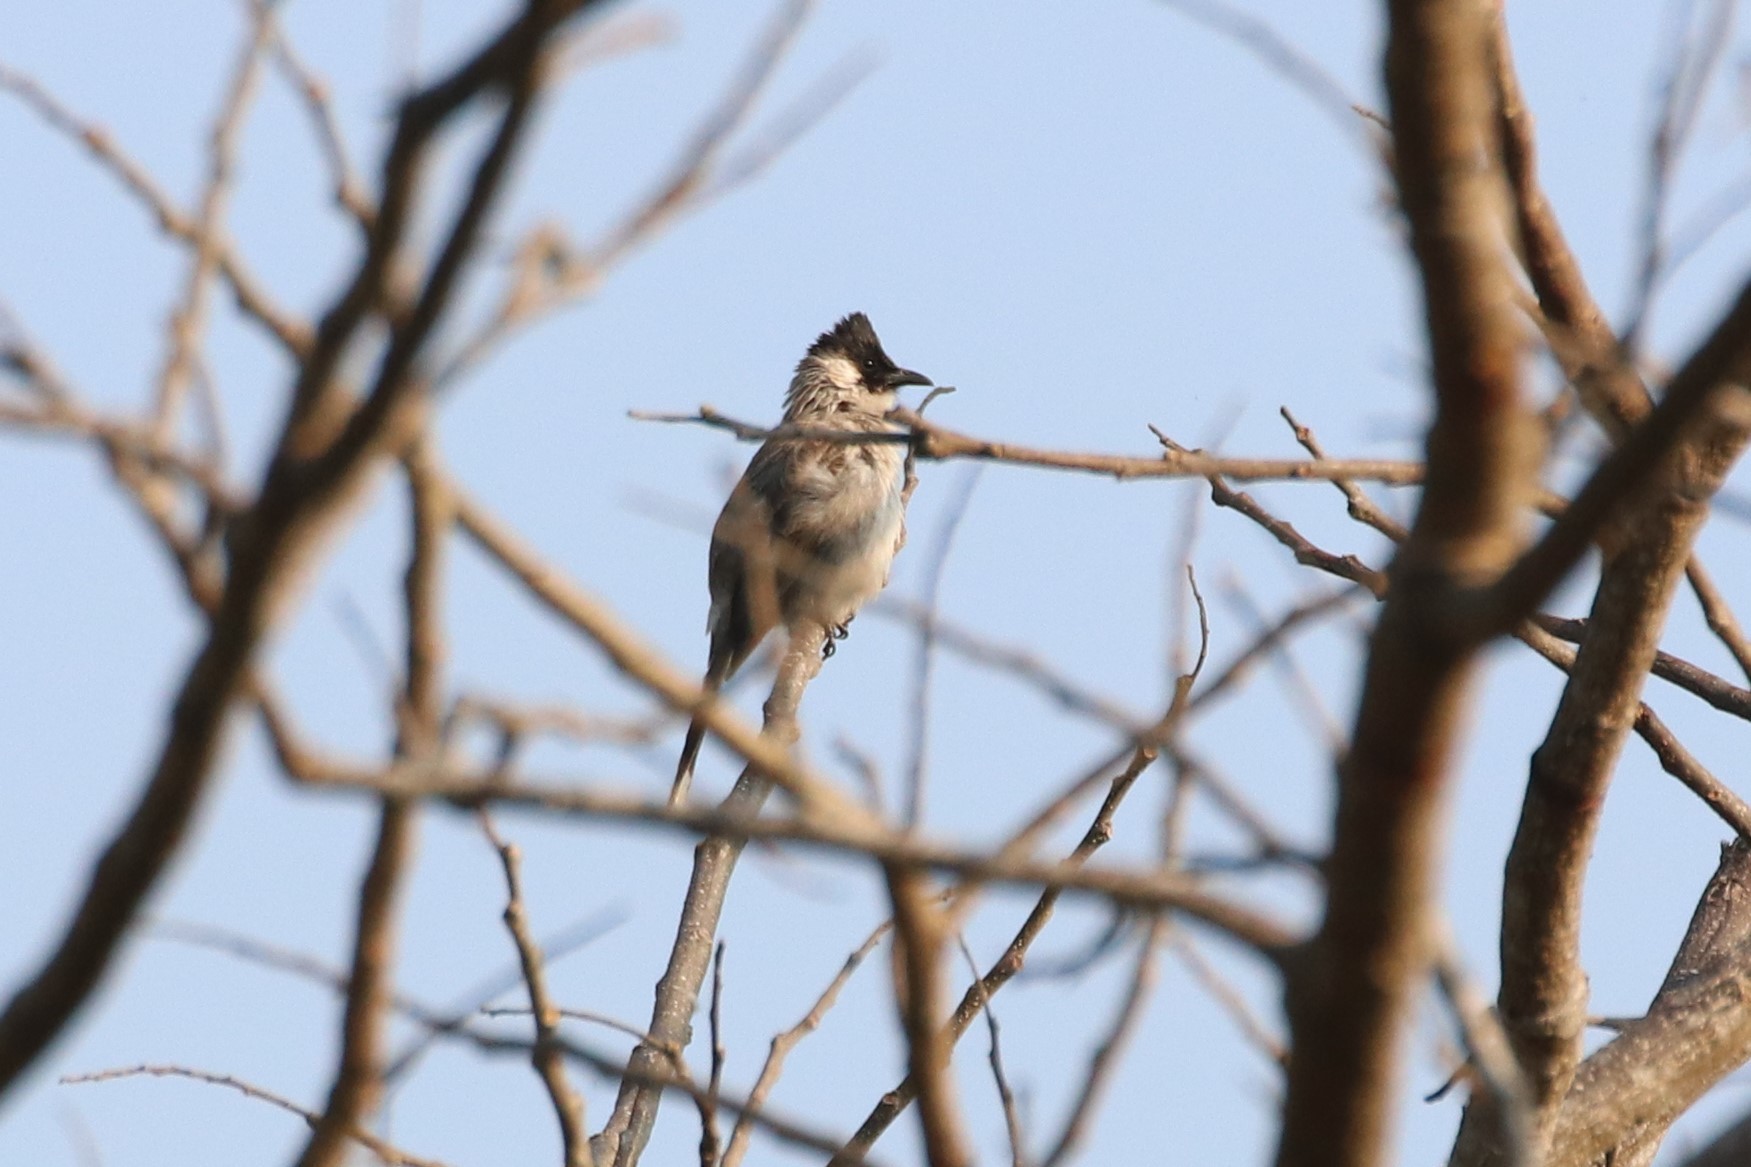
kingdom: Animalia
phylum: Chordata
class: Aves
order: Passeriformes
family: Pycnonotidae
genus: Pycnonotus
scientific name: Pycnonotus aurigaster
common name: Sooty-headed bulbul
